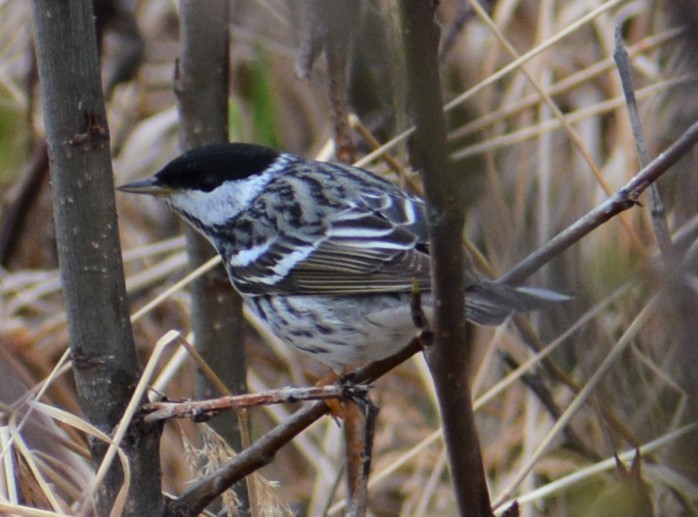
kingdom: Animalia
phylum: Chordata
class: Aves
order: Passeriformes
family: Parulidae
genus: Setophaga
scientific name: Setophaga striata
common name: Blackpoll warbler
